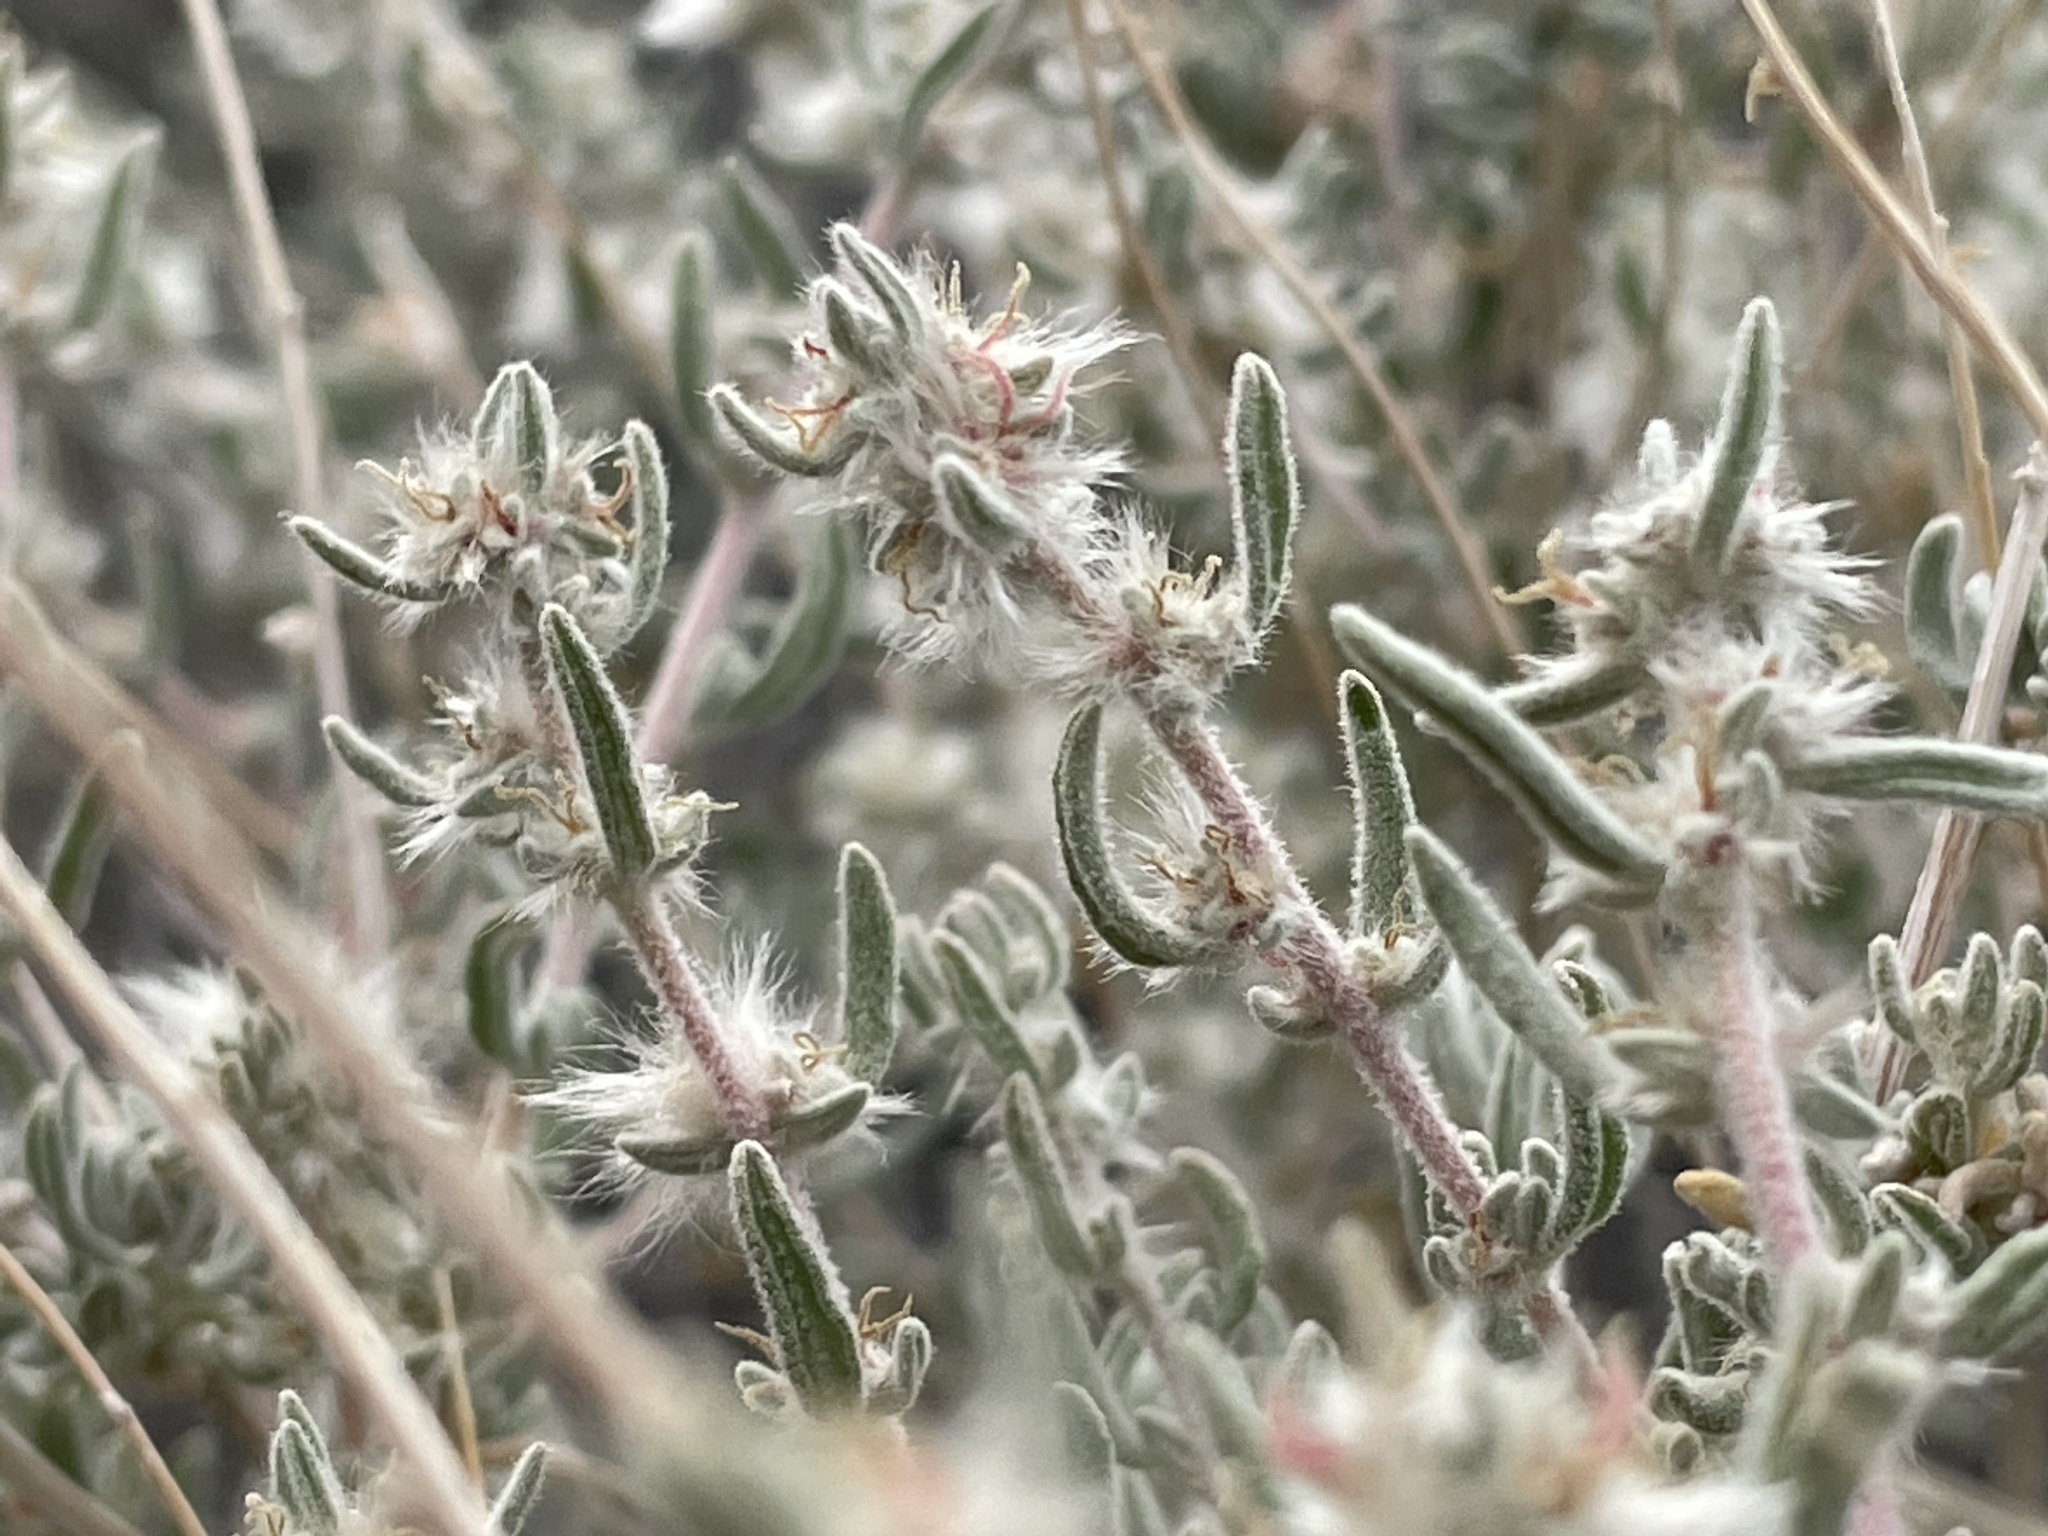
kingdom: Plantae
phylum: Tracheophyta
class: Magnoliopsida
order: Caryophyllales
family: Amaranthaceae
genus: Krascheninnikovia
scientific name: Krascheninnikovia lanata
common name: Winterfat
